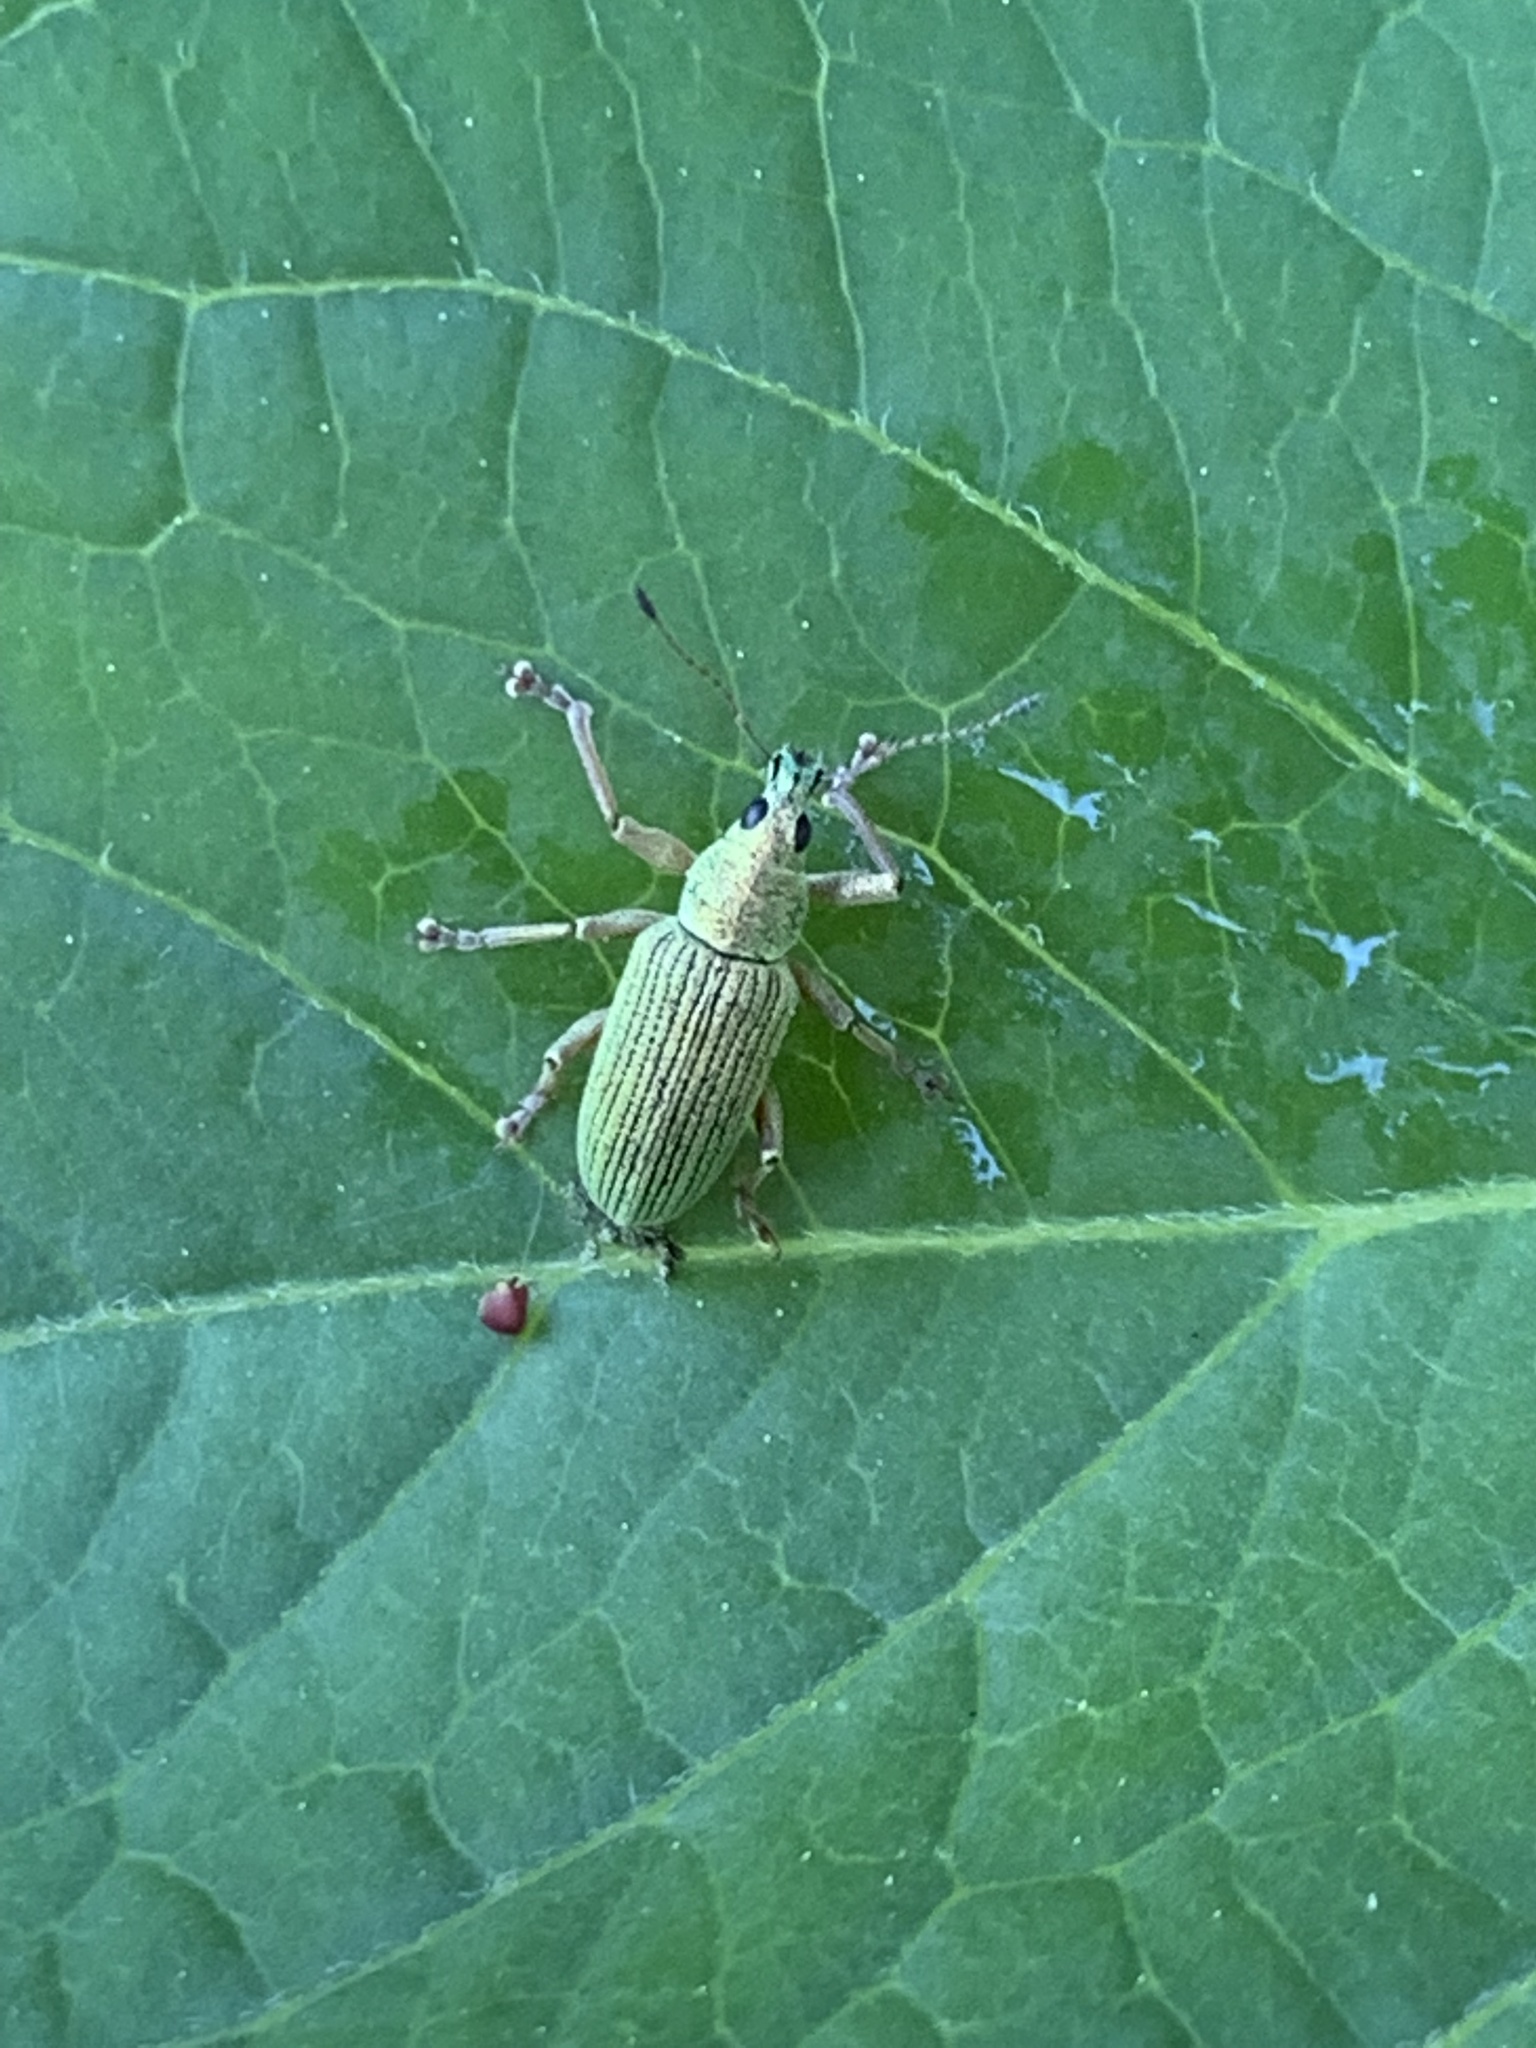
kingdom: Animalia
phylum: Arthropoda
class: Insecta
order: Coleoptera
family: Curculionidae
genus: Polydrusus
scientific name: Polydrusus formosus
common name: Weevil
